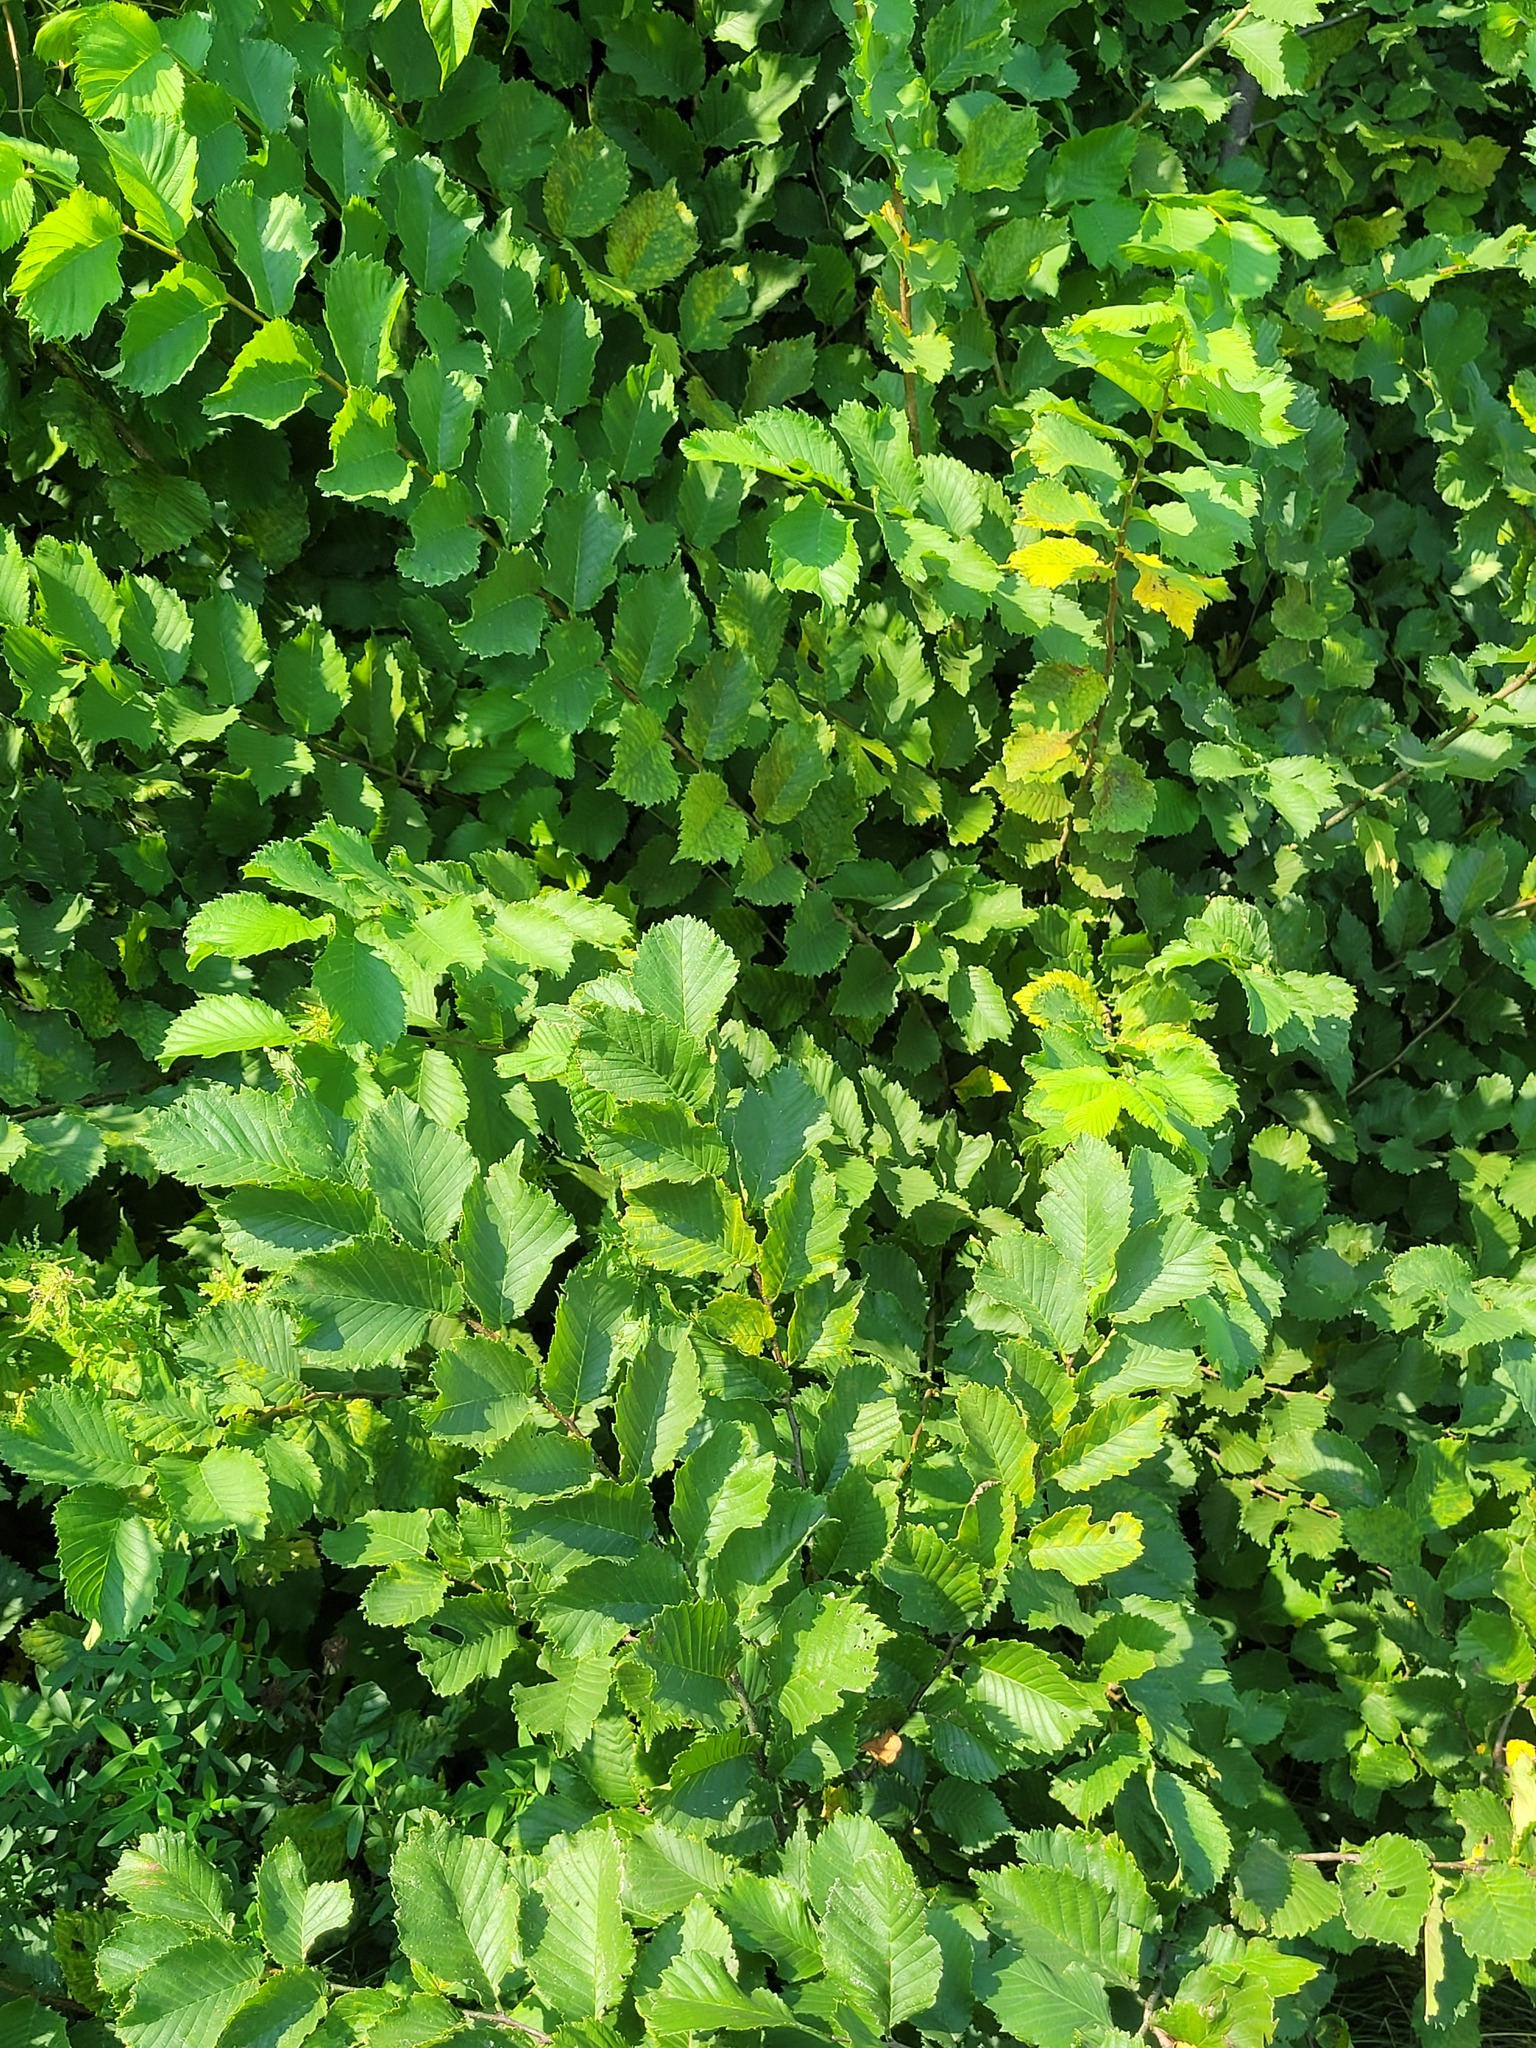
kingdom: Plantae
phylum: Tracheophyta
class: Magnoliopsida
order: Rosales
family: Ulmaceae
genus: Ulmus
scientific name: Ulmus laevis
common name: European white-elm
